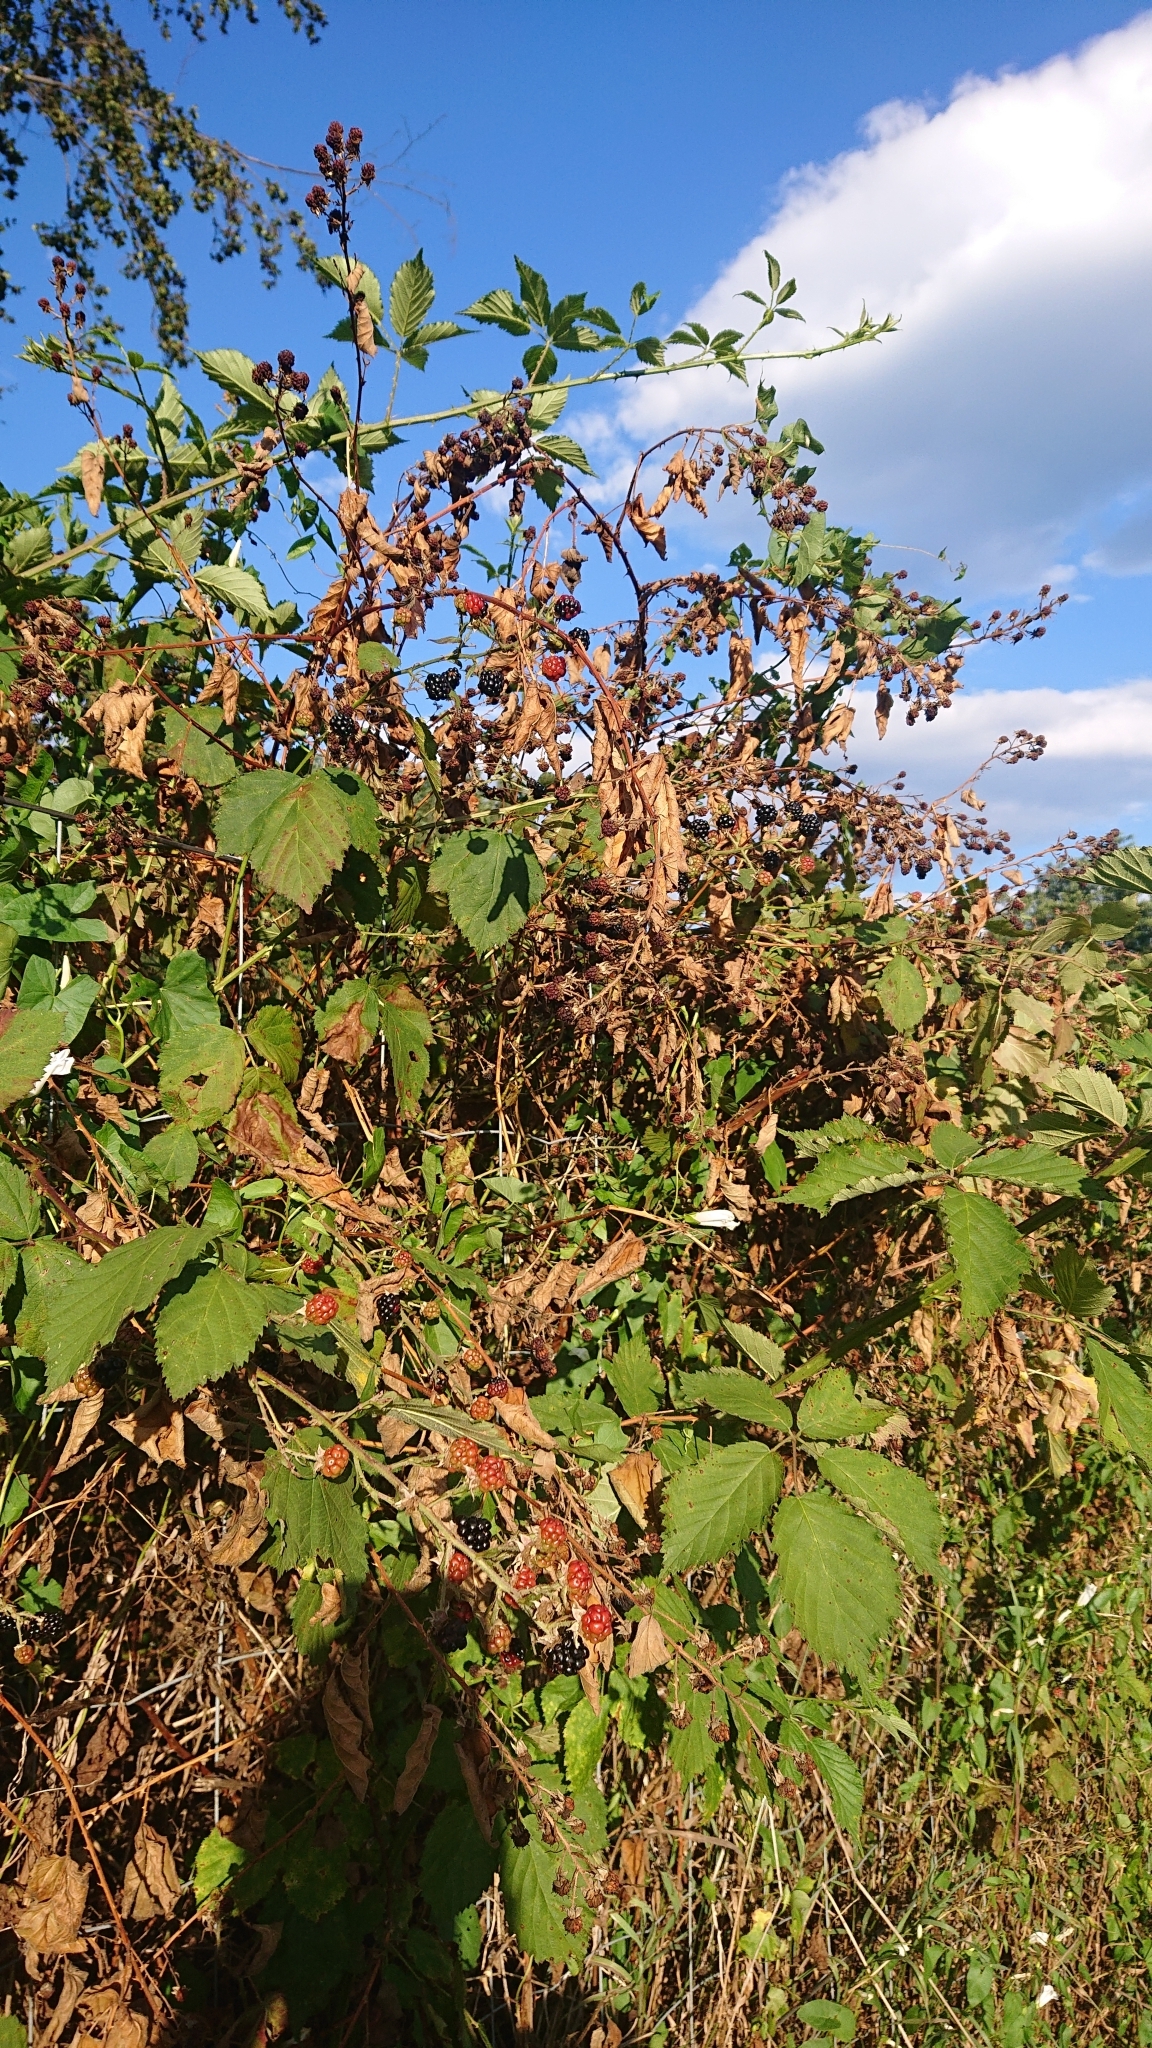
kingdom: Plantae
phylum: Tracheophyta
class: Magnoliopsida
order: Rosales
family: Rosaceae
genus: Rubus
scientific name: Rubus
